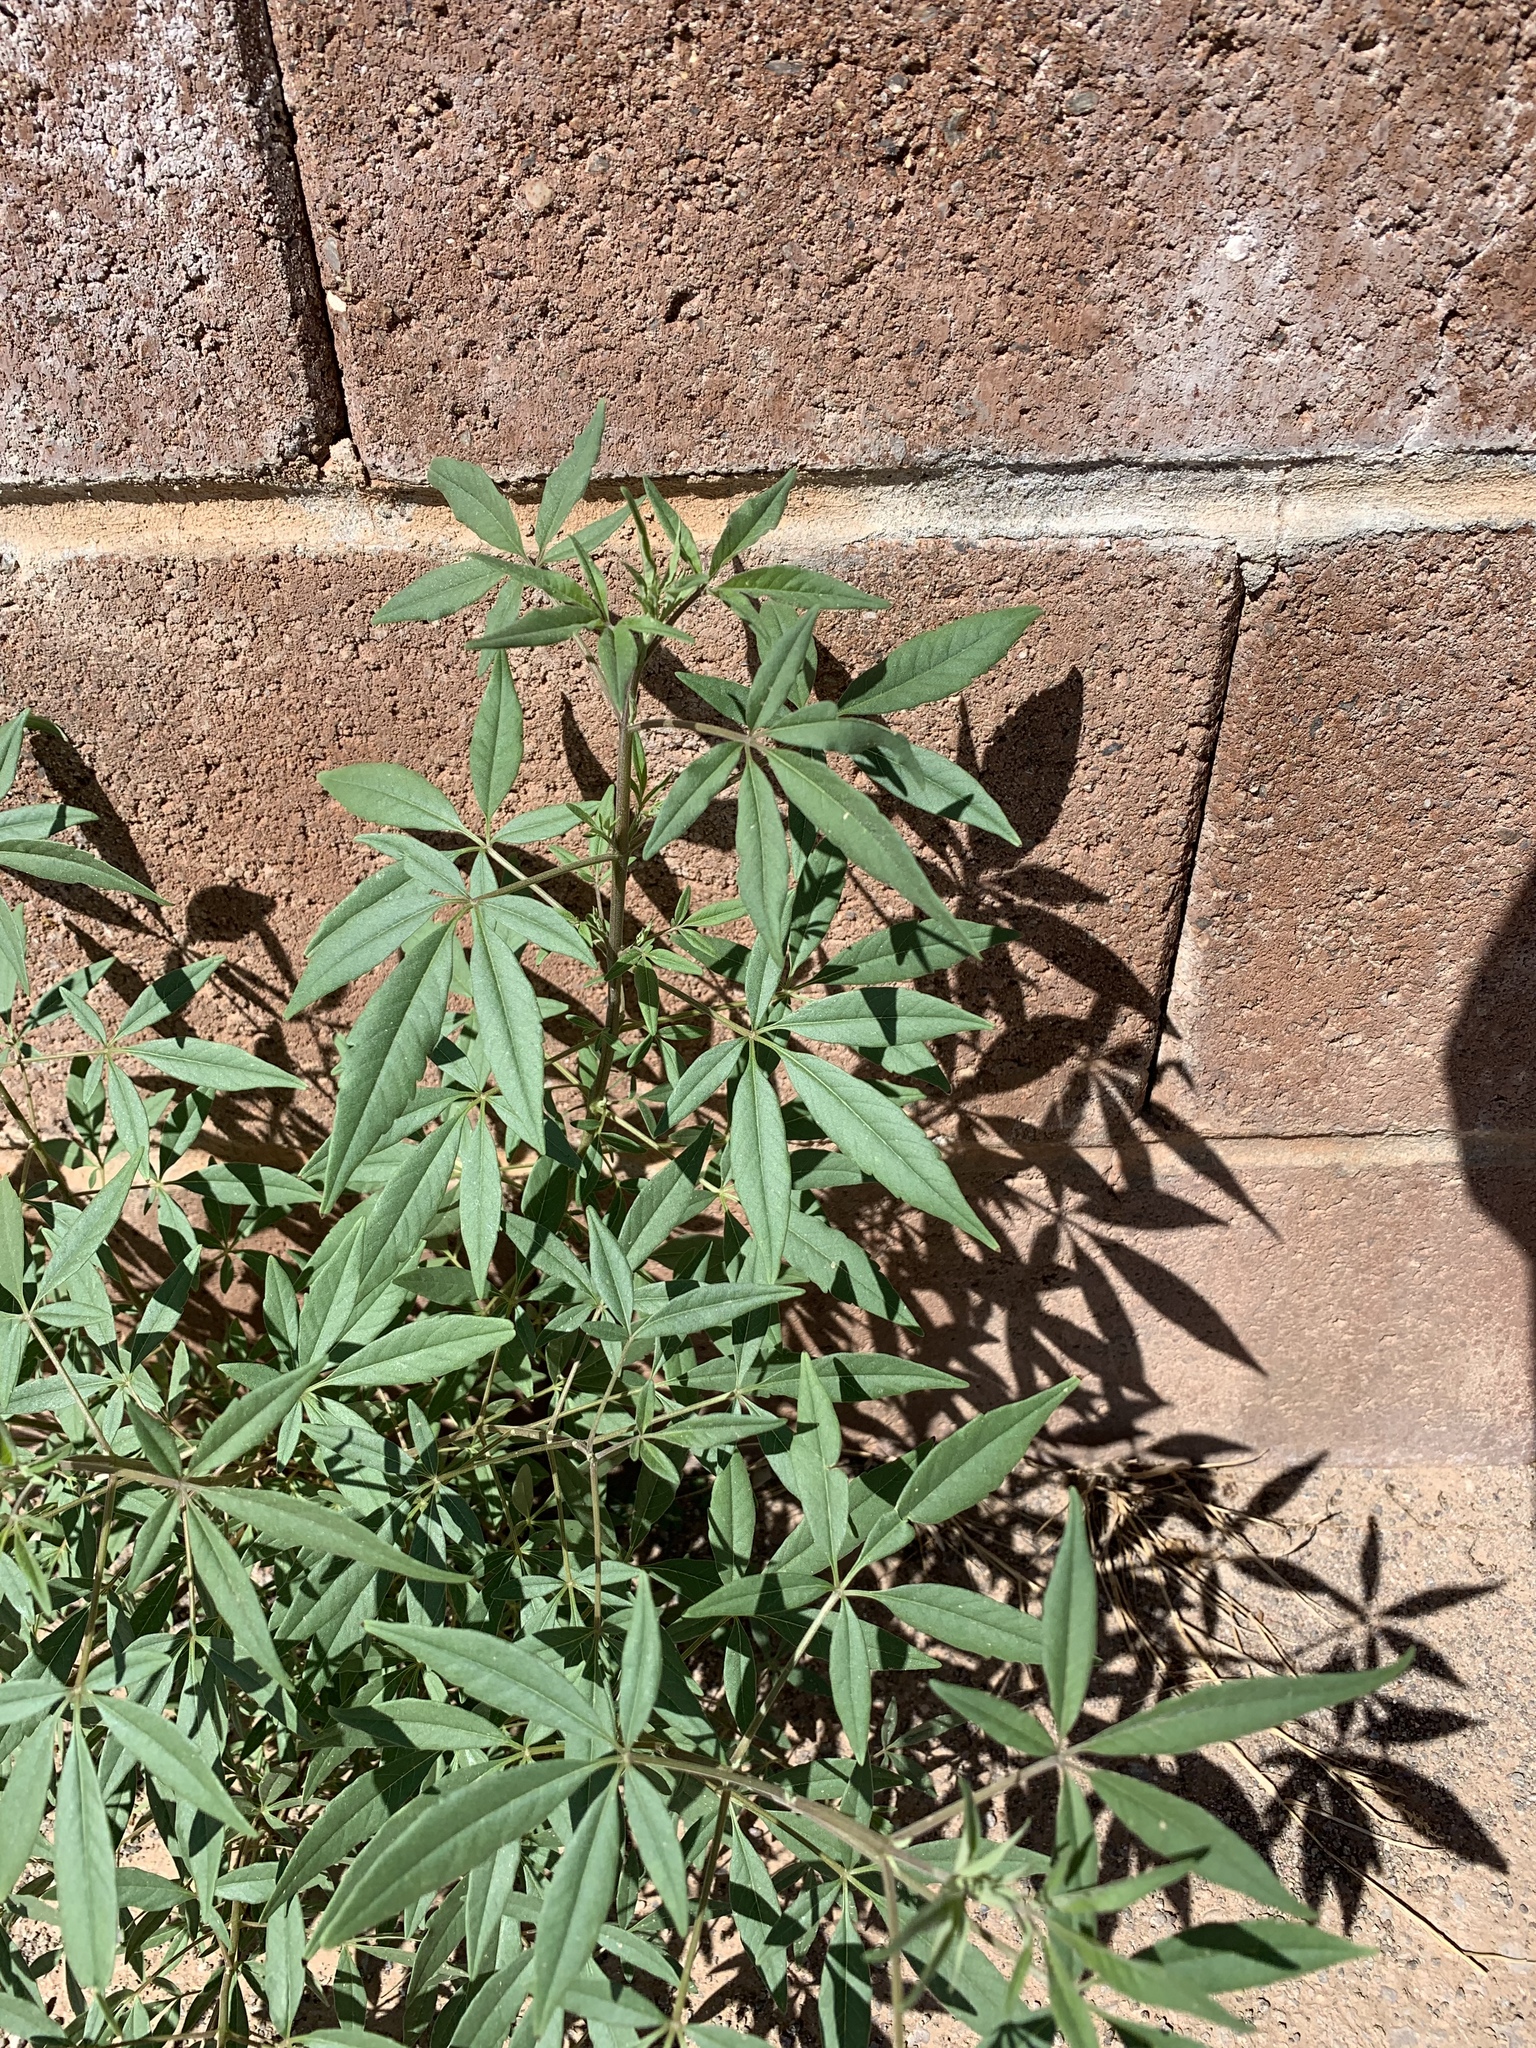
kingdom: Plantae
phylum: Tracheophyta
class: Magnoliopsida
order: Lamiales
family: Lamiaceae
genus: Vitex
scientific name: Vitex agnus-castus
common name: Chasteberry
